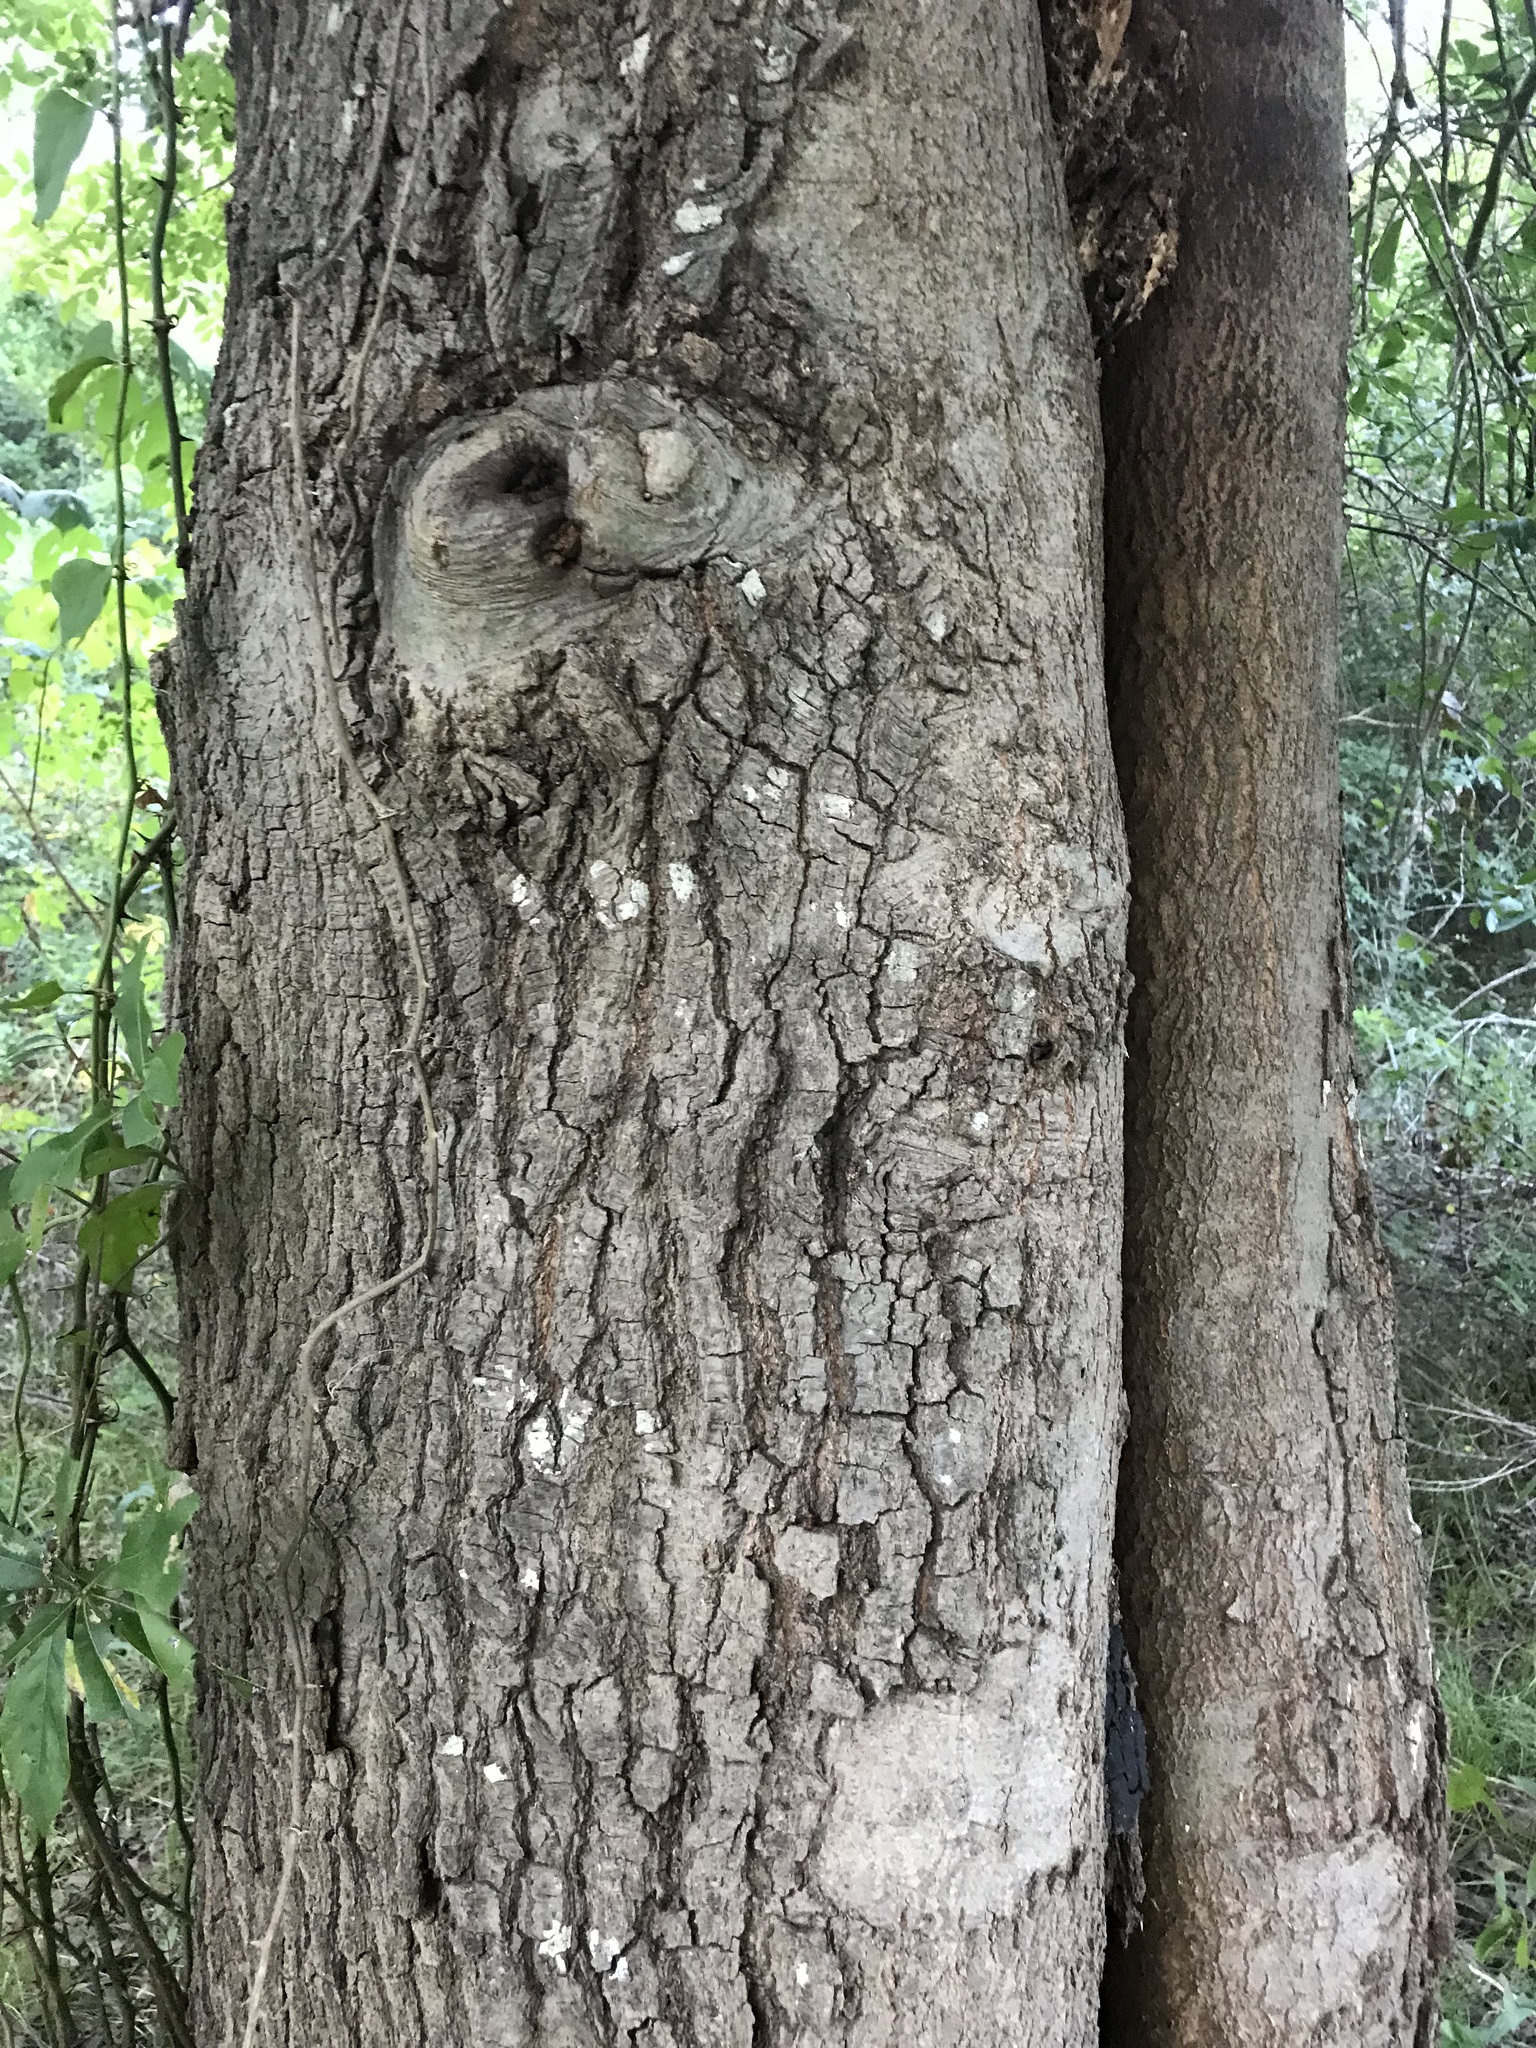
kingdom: Plantae
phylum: Tracheophyta
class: Magnoliopsida
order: Fagales
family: Fagaceae
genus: Quercus
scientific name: Quercus nigra
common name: Water oak
